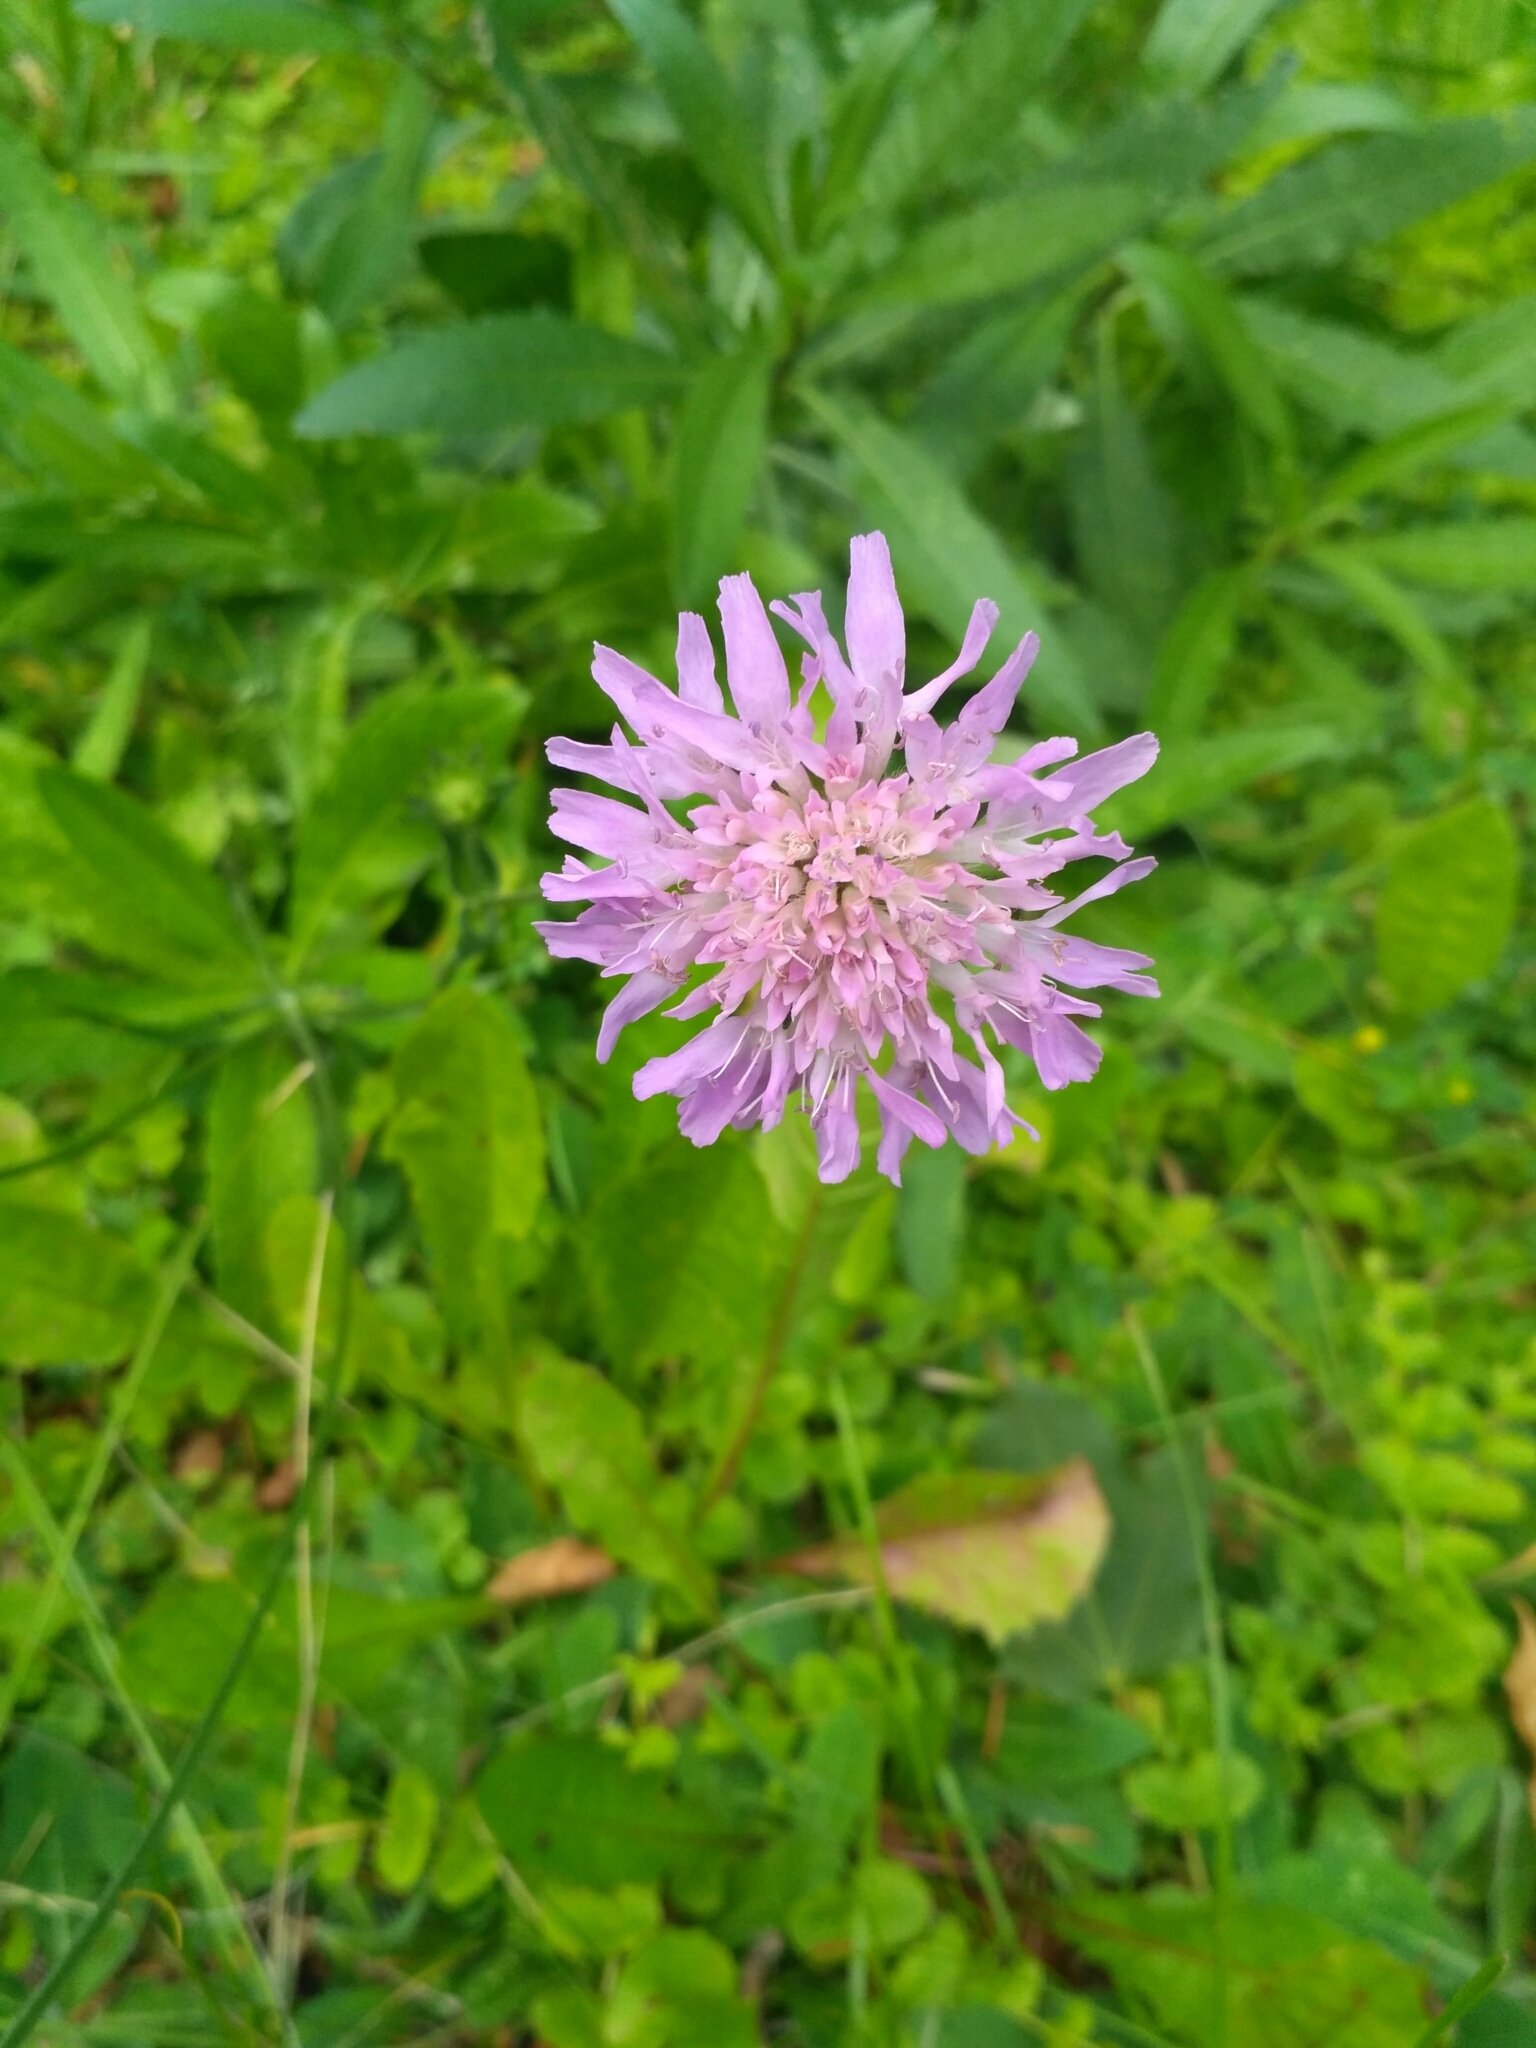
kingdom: Plantae
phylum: Tracheophyta
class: Magnoliopsida
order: Dipsacales
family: Caprifoliaceae
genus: Knautia
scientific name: Knautia arvensis
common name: Field scabiosa
